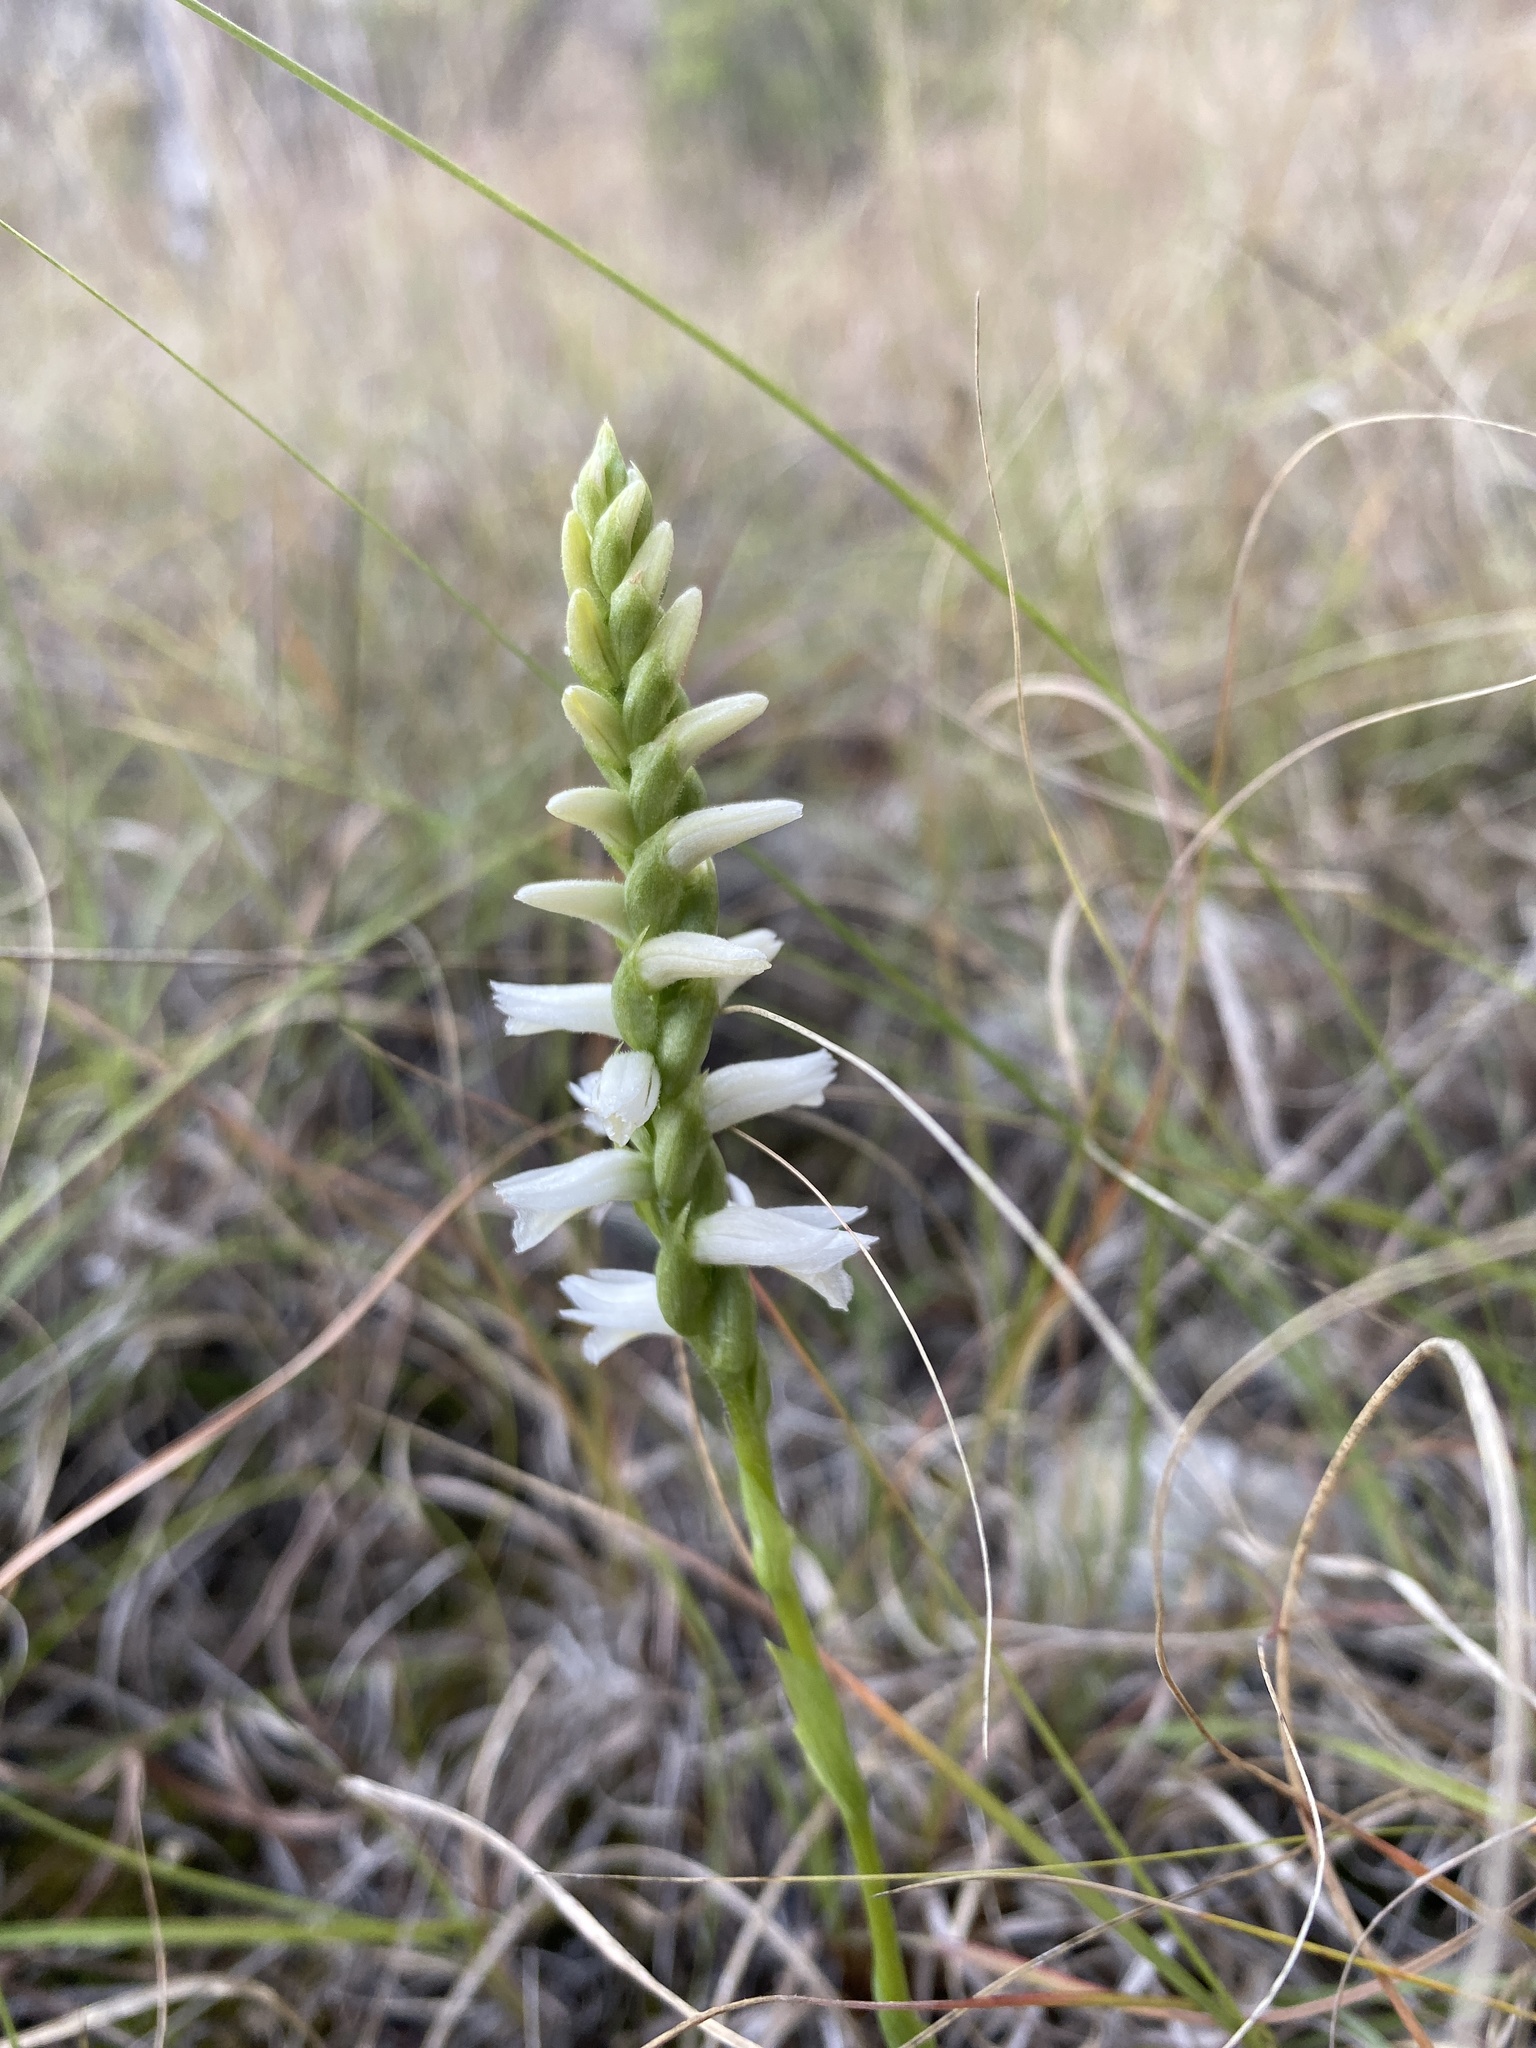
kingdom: Plantae
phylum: Tracheophyta
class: Liliopsida
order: Asparagales
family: Orchidaceae
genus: Spiranthes
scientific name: Spiranthes magnicamporum
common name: Great plains ladies'-tresses
